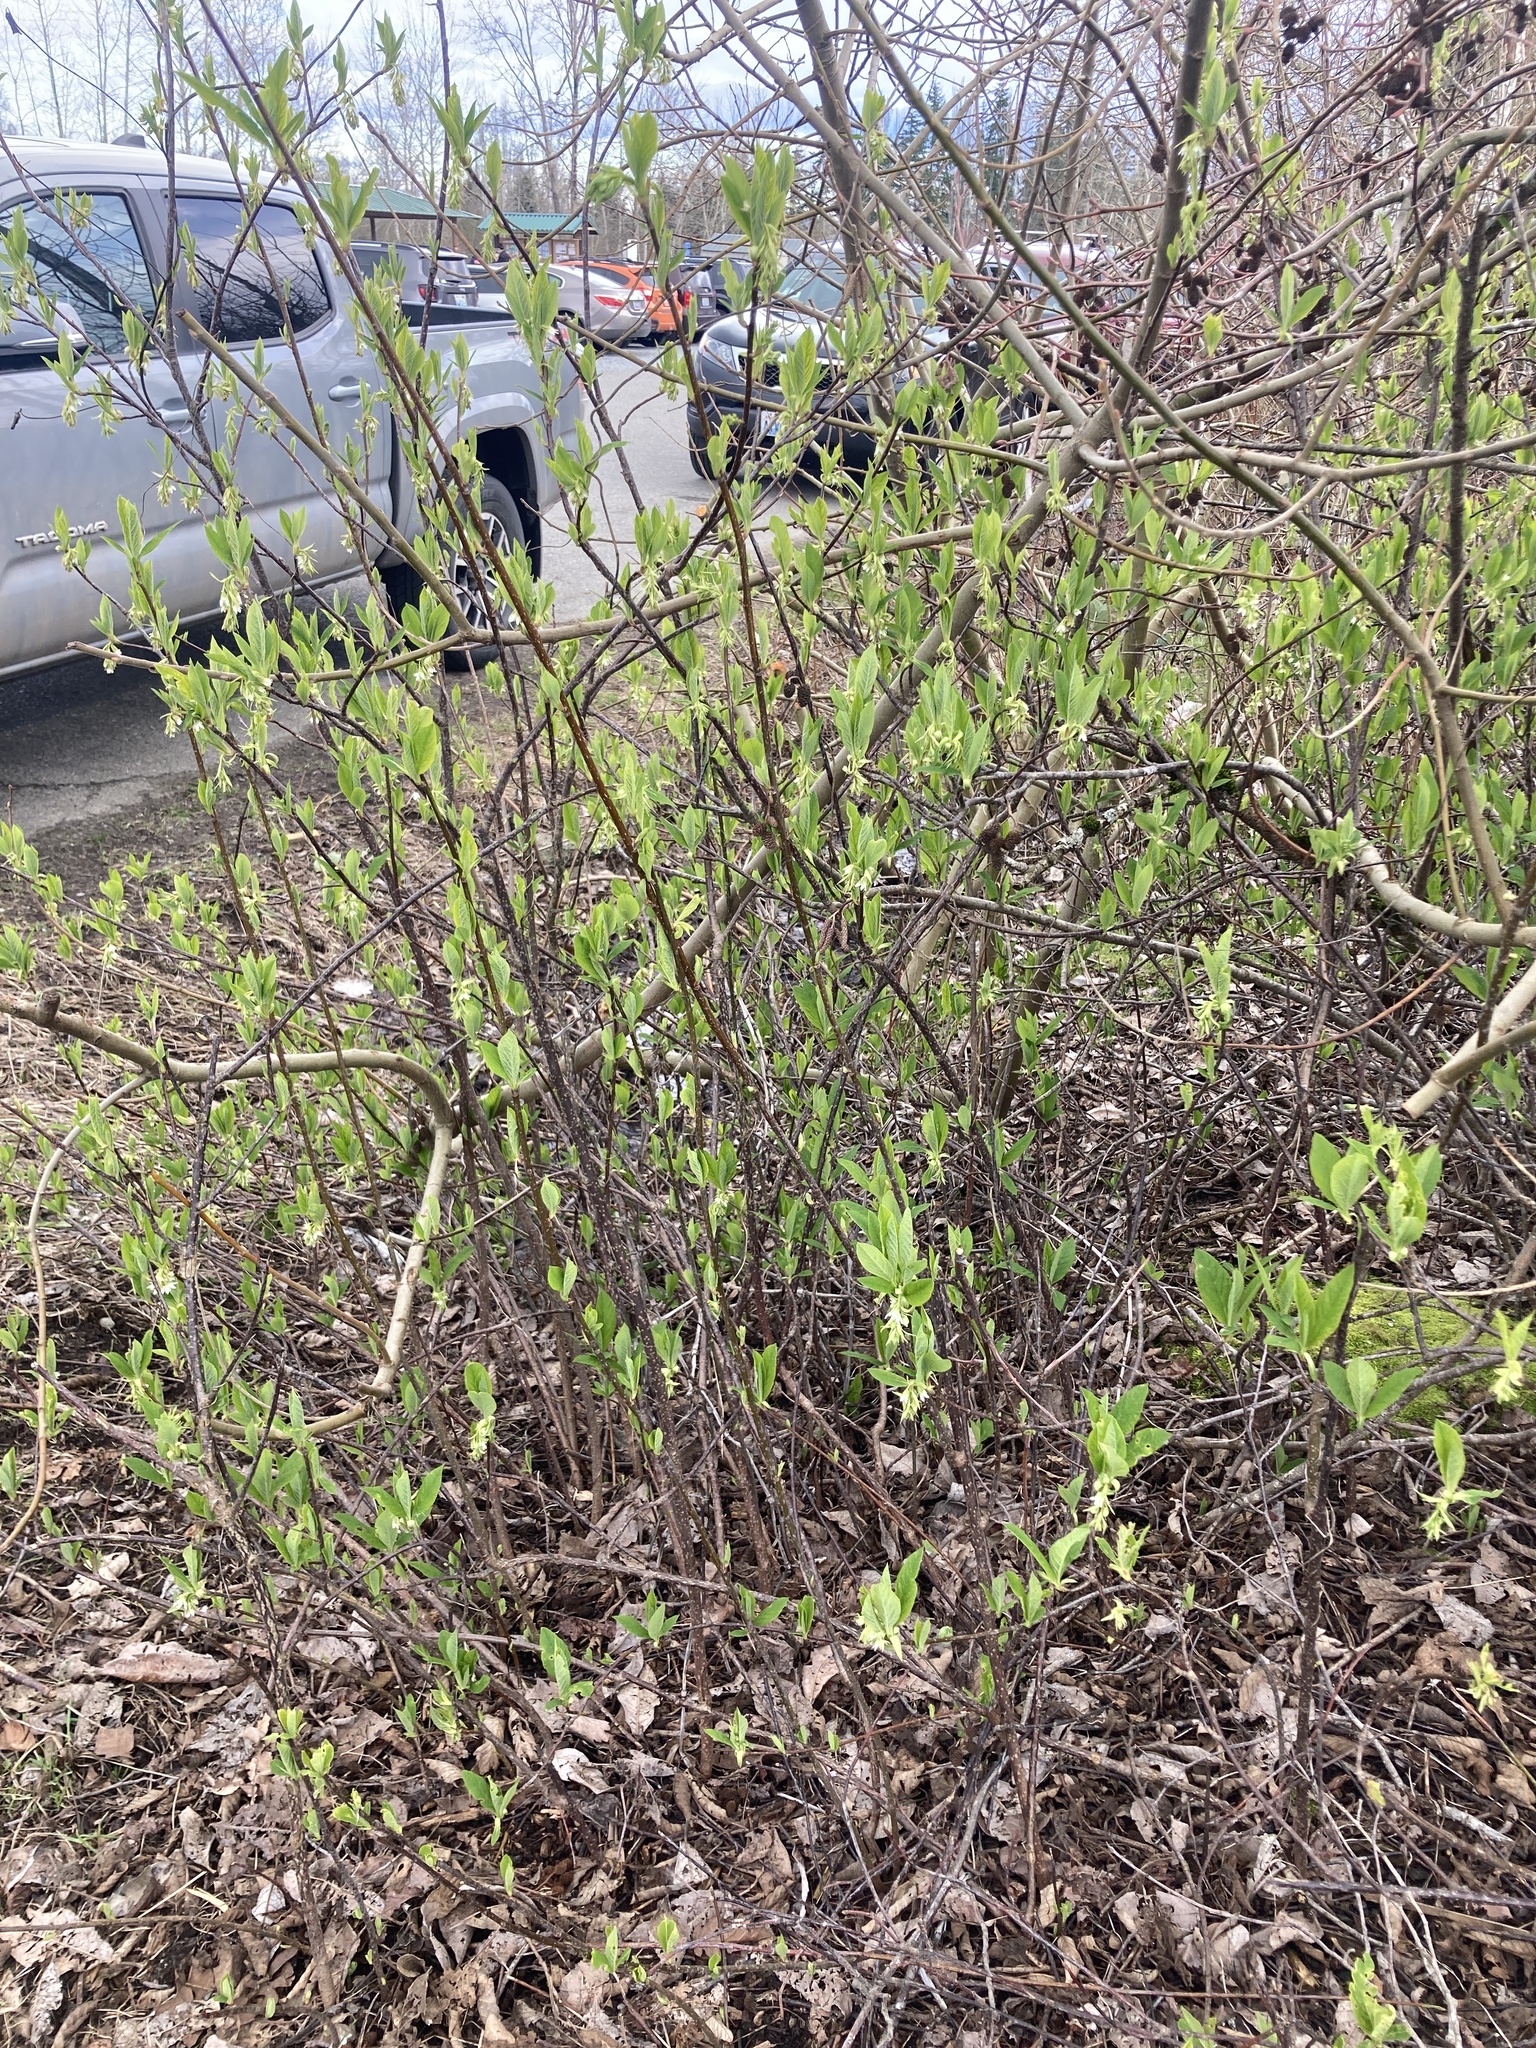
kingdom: Plantae
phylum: Tracheophyta
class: Magnoliopsida
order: Rosales
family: Rosaceae
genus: Oemleria
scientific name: Oemleria cerasiformis
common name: Osoberry
